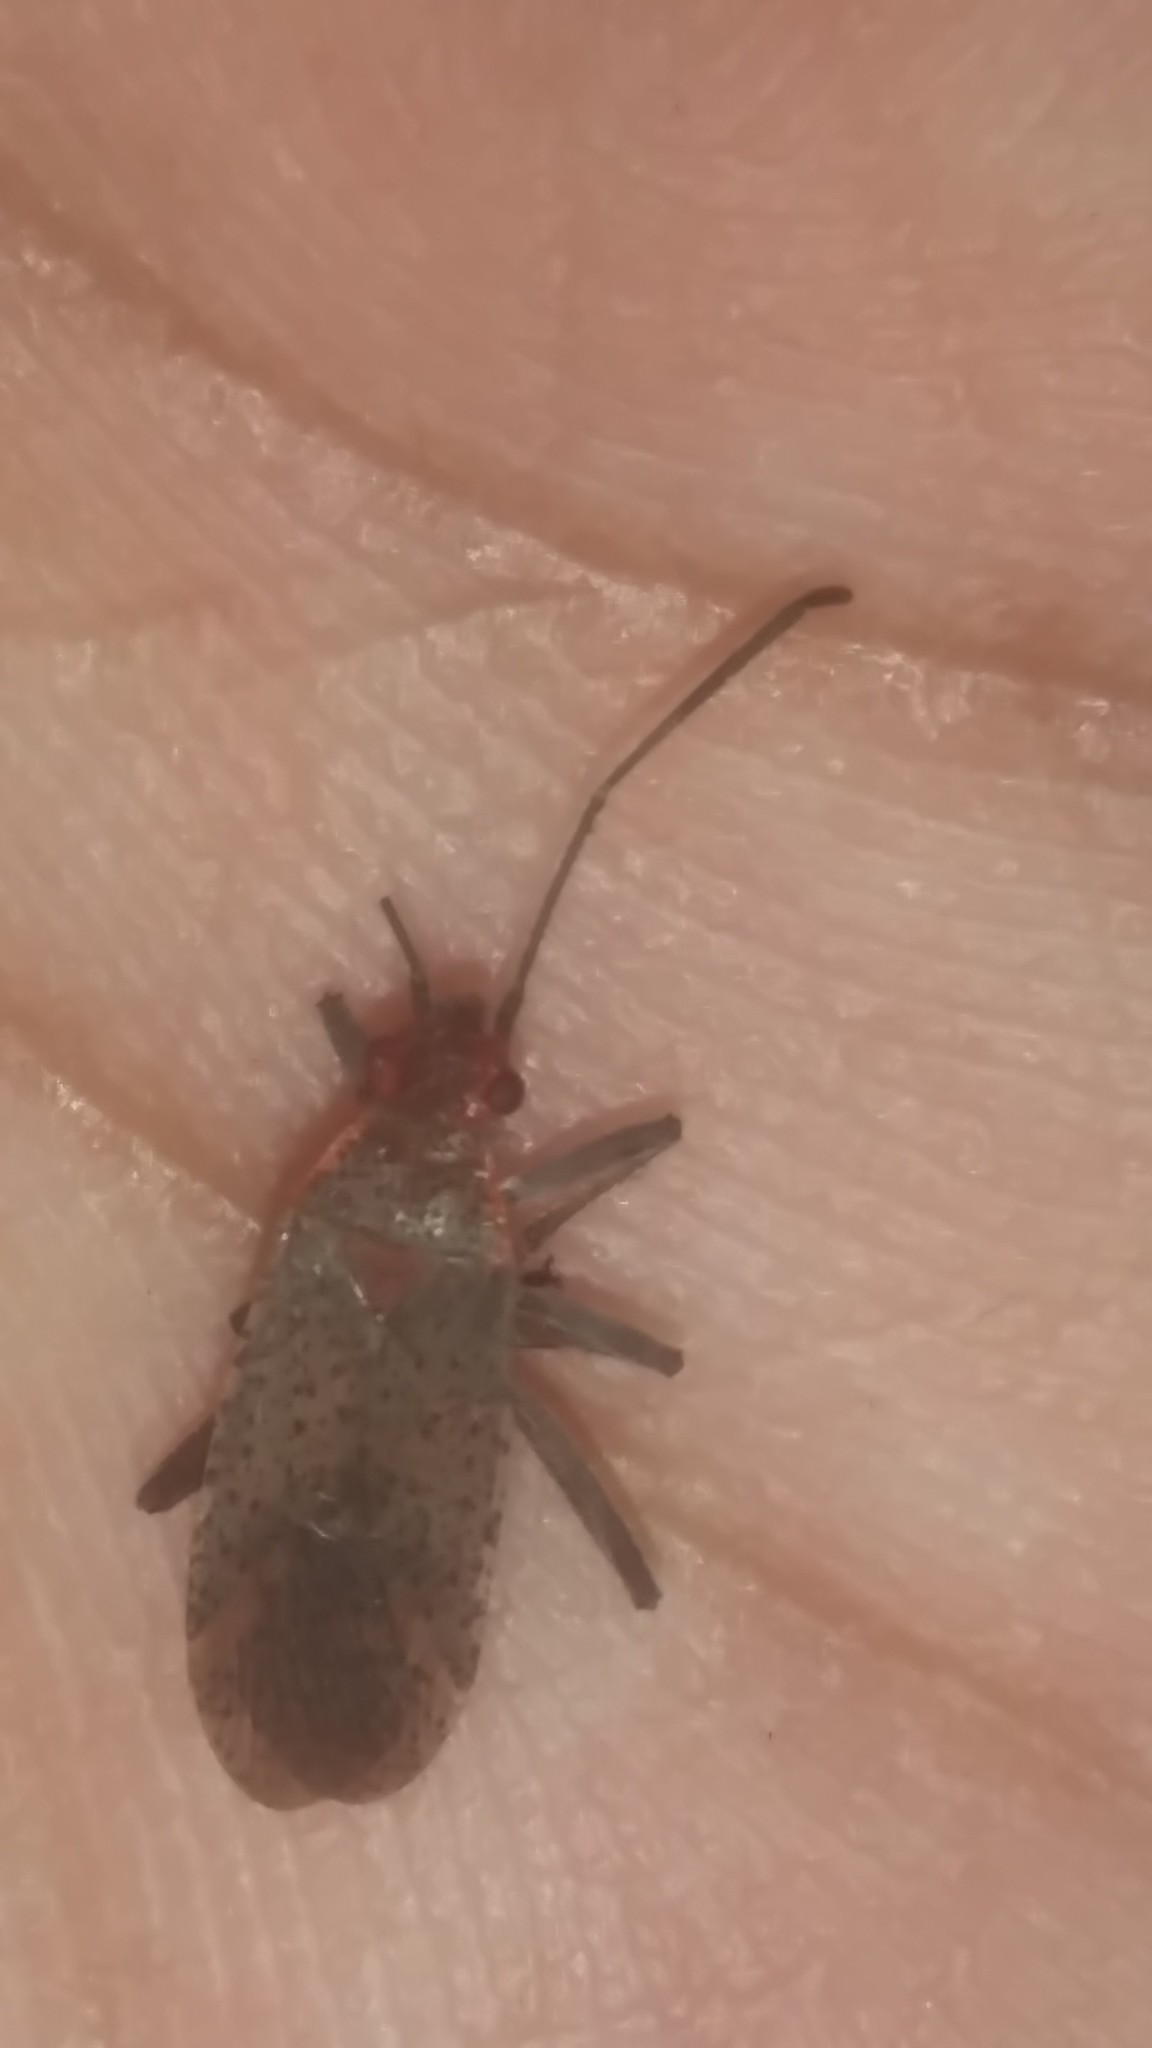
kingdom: Animalia
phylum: Arthropoda
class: Insecta
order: Hemiptera
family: Rhopalidae
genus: Jadera
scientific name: Jadera coturnix
